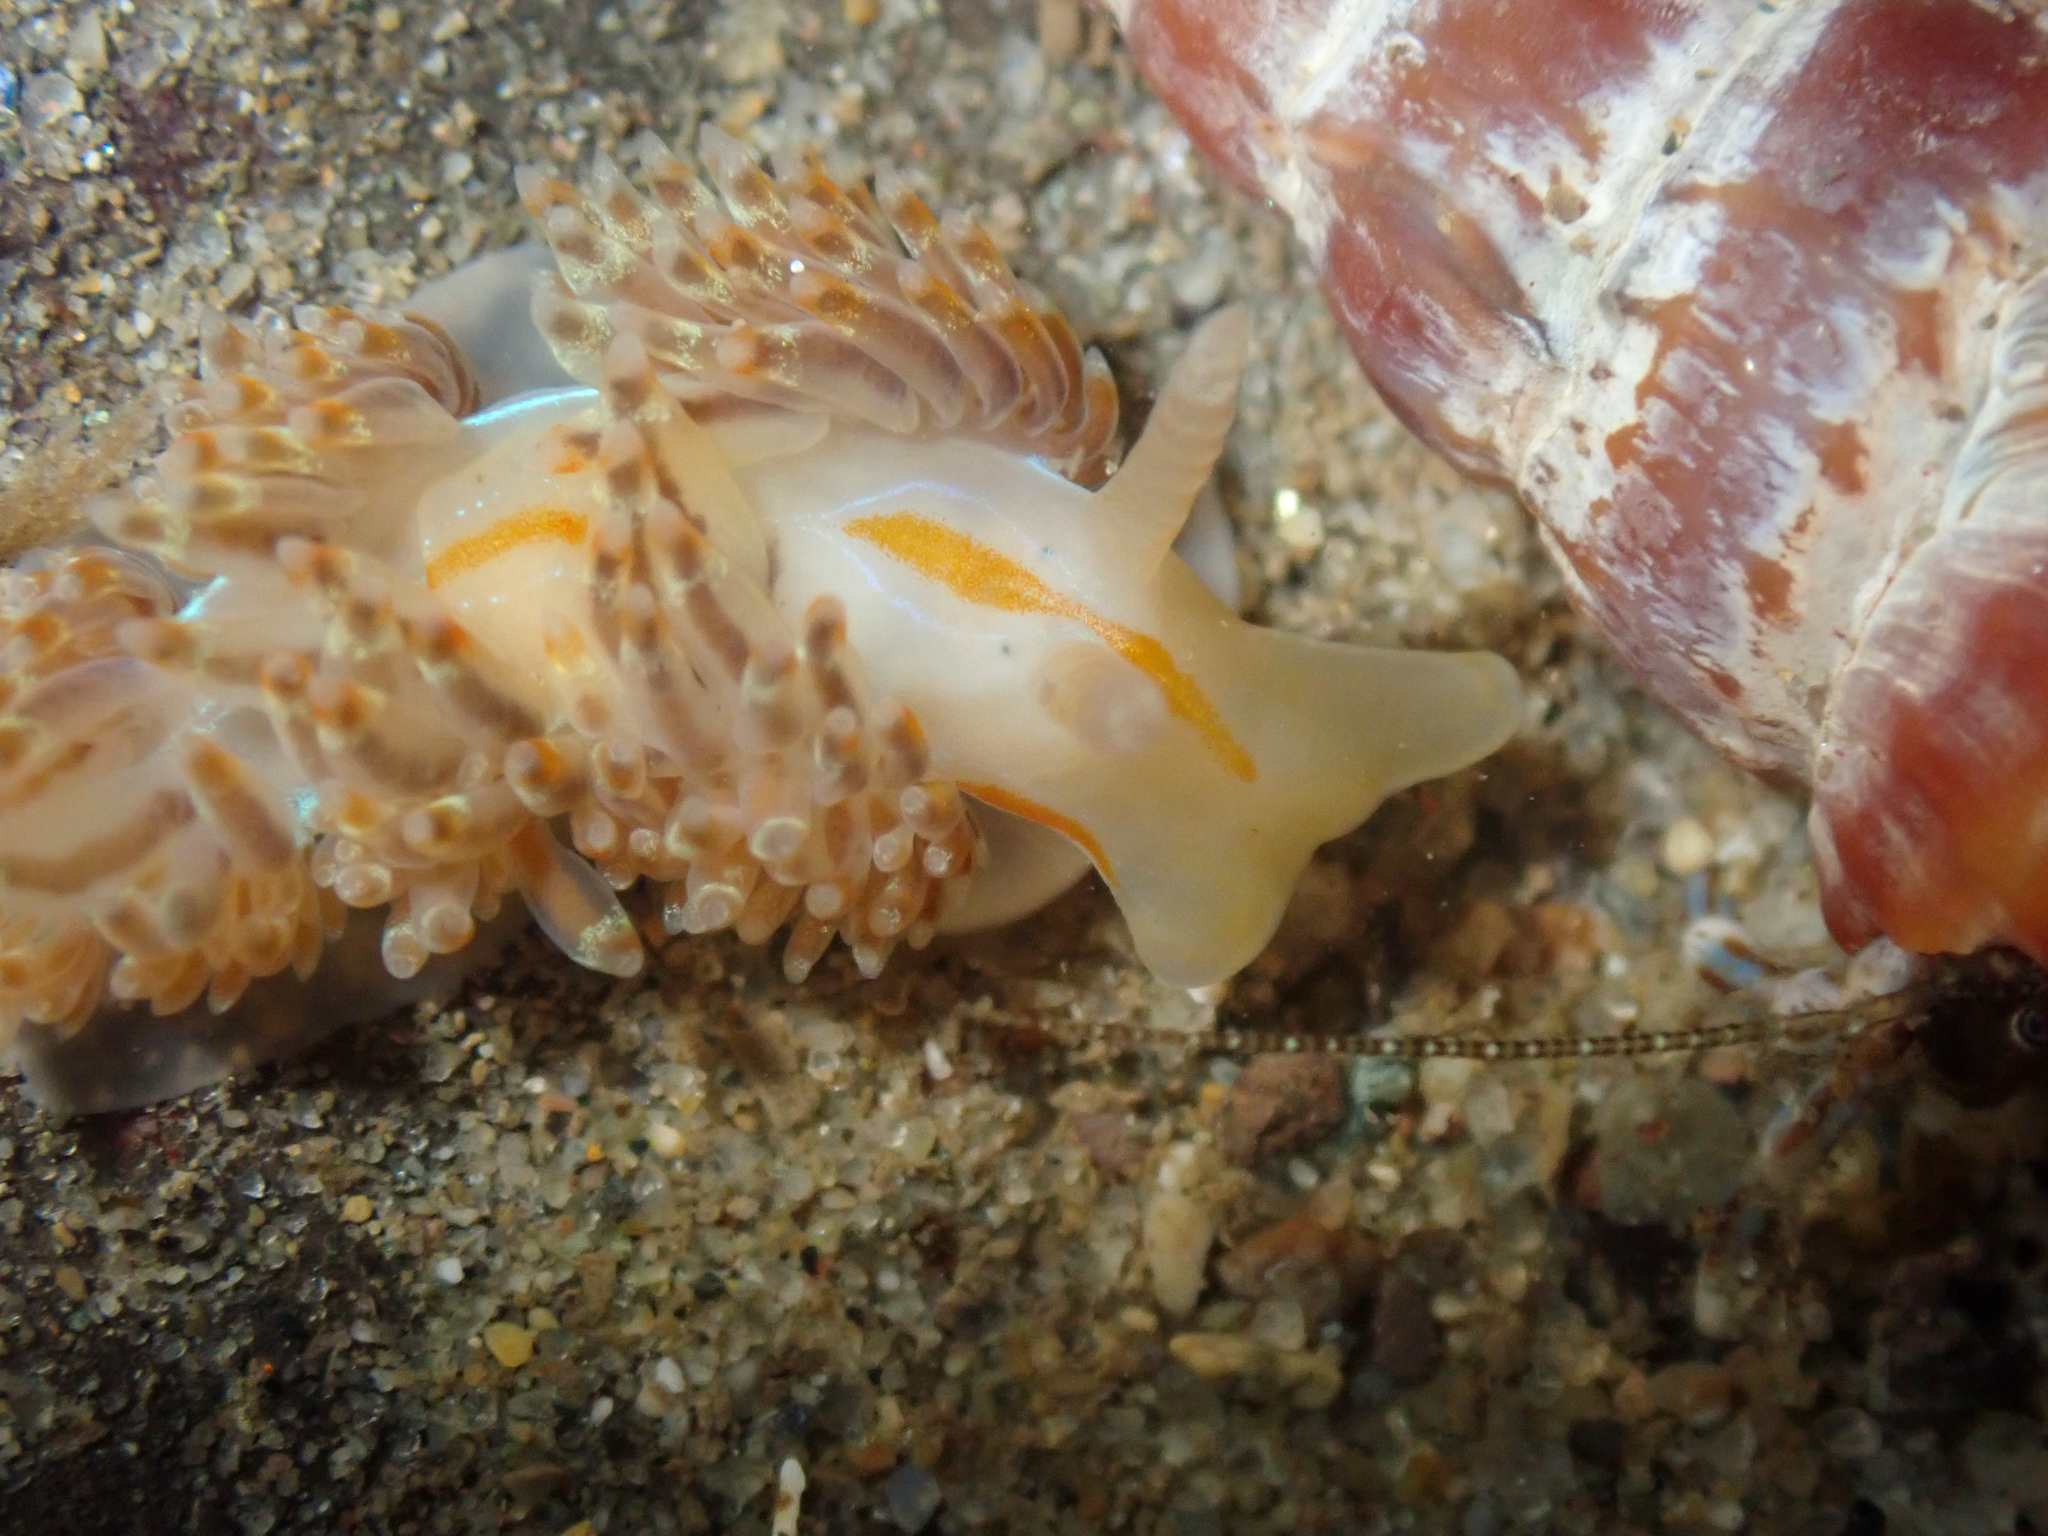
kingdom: Animalia
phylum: Mollusca
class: Gastropoda
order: Nudibranchia
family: Myrrhinidae
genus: Hermissenda
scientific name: Hermissenda opalescens
